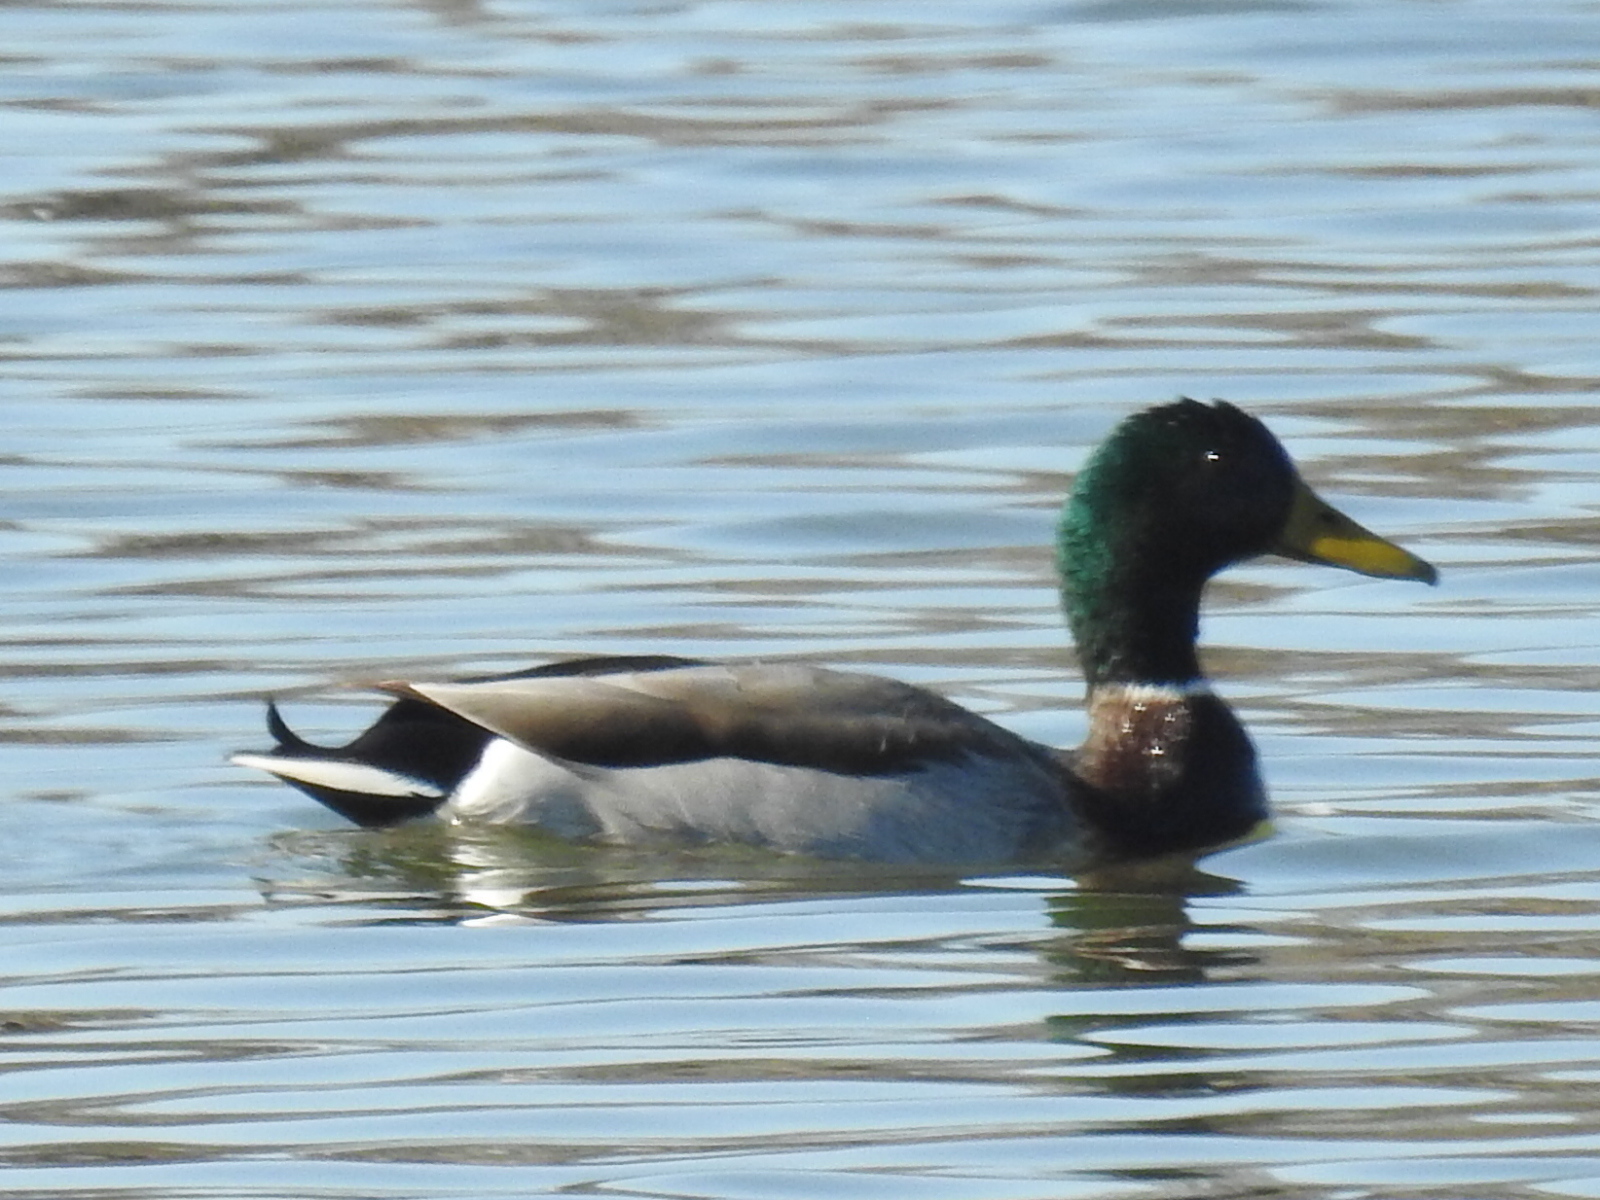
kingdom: Animalia
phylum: Chordata
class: Aves
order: Anseriformes
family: Anatidae
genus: Anas
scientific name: Anas platyrhynchos
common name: Mallard
